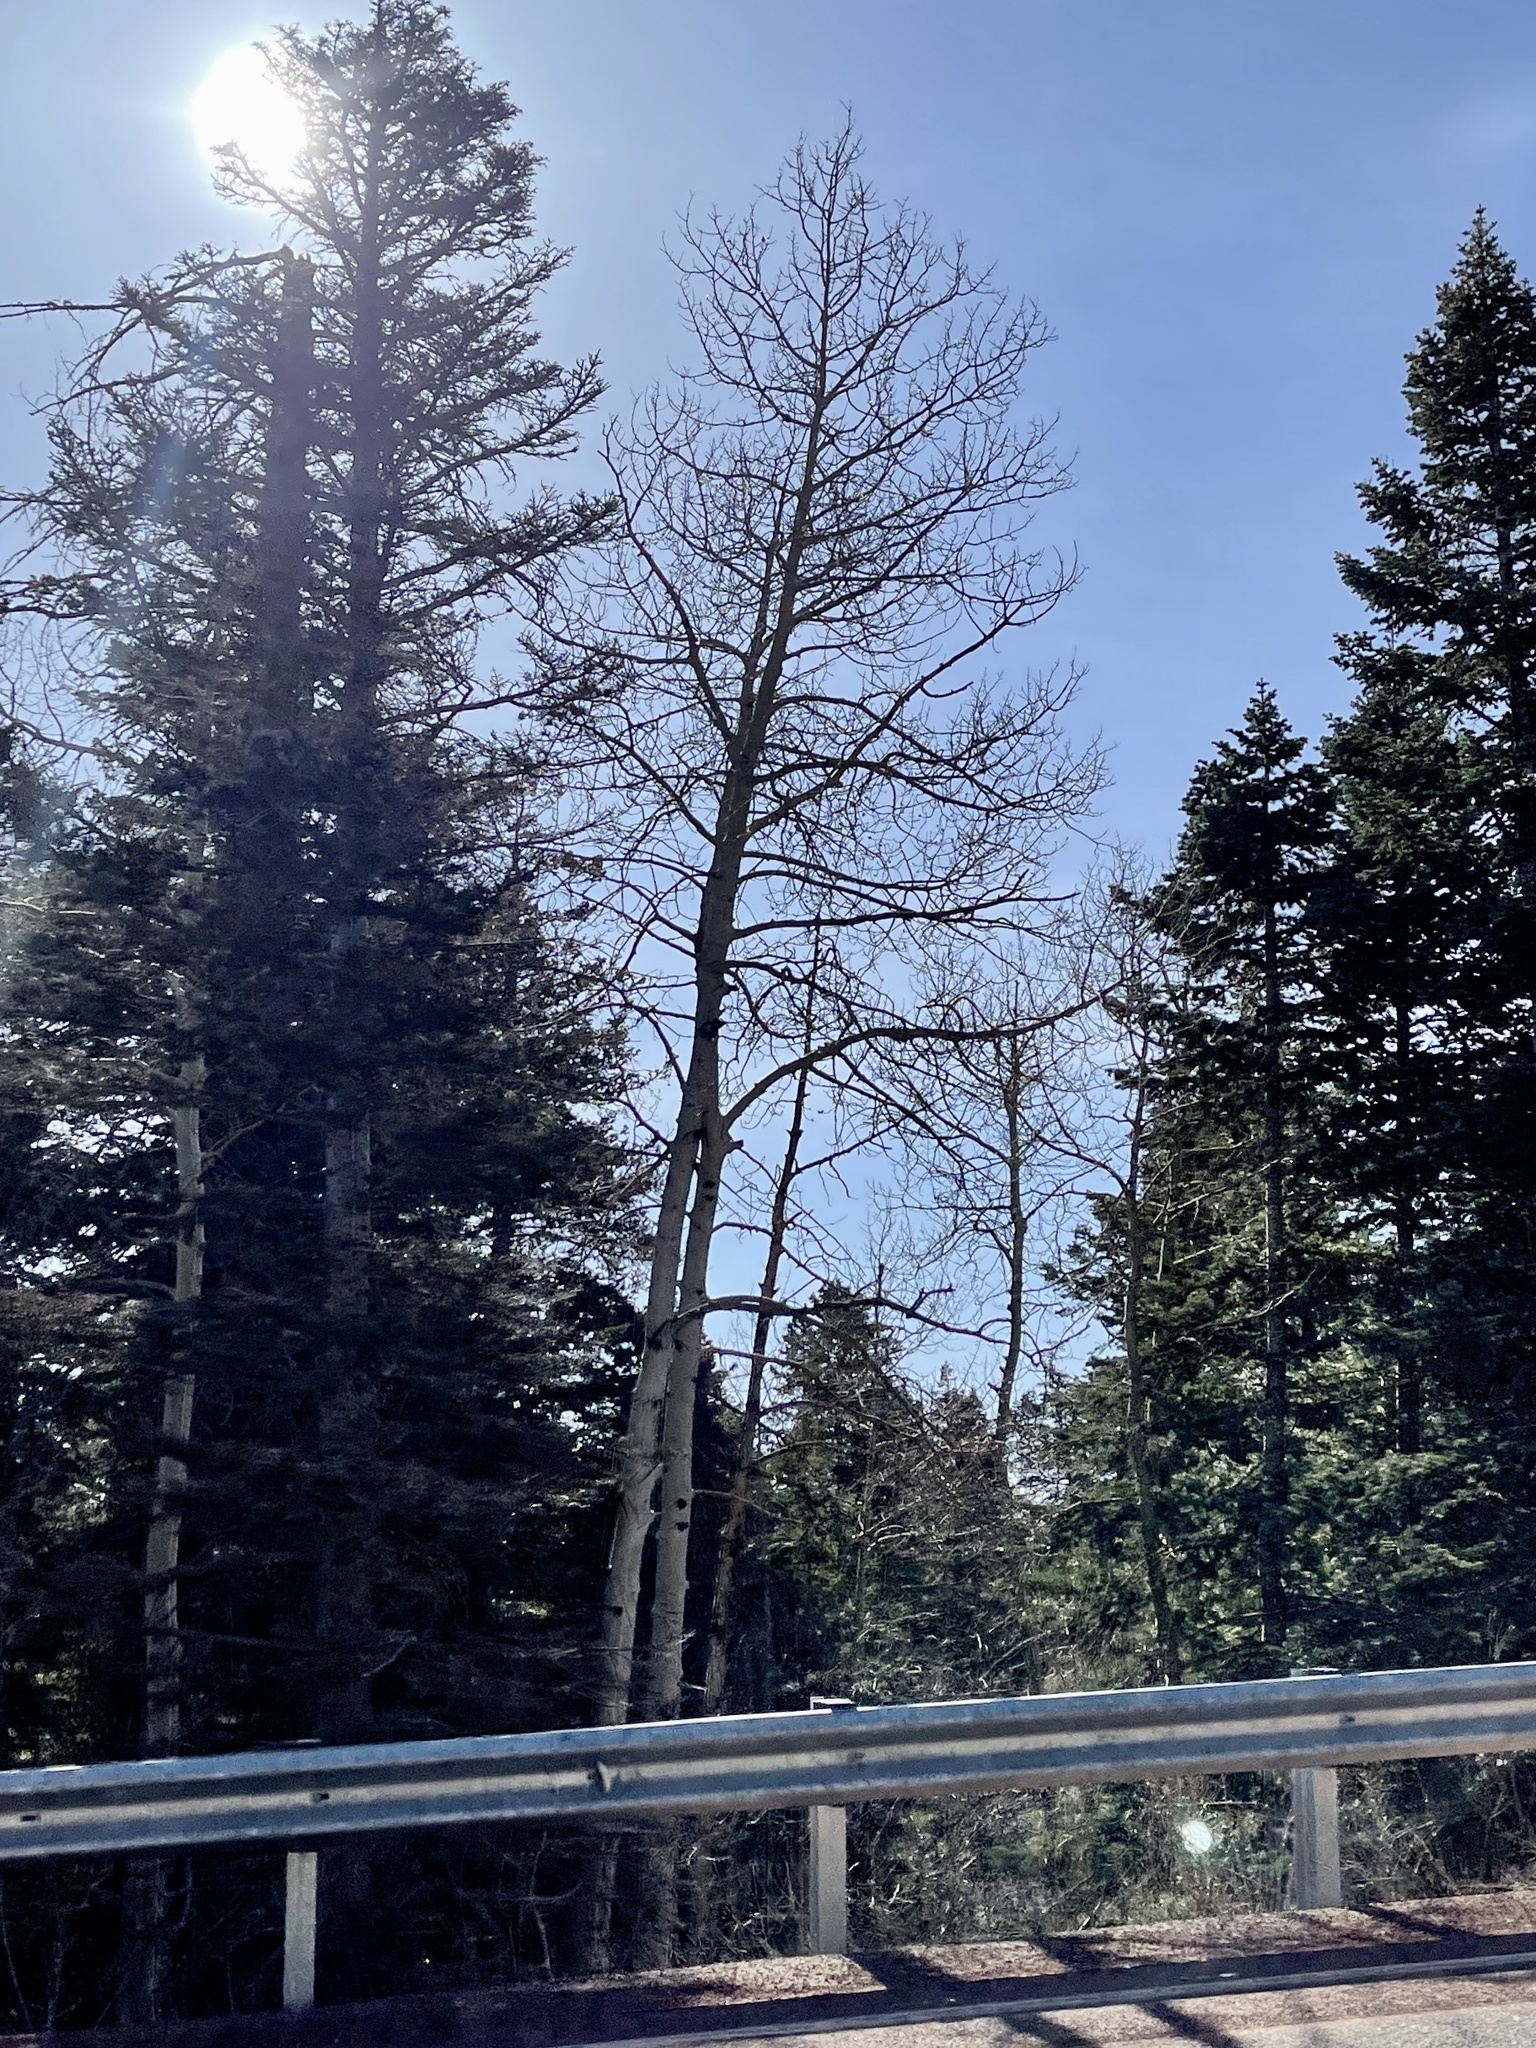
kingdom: Plantae
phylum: Tracheophyta
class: Magnoliopsida
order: Malpighiales
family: Salicaceae
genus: Populus
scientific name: Populus tremuloides
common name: Quaking aspen
